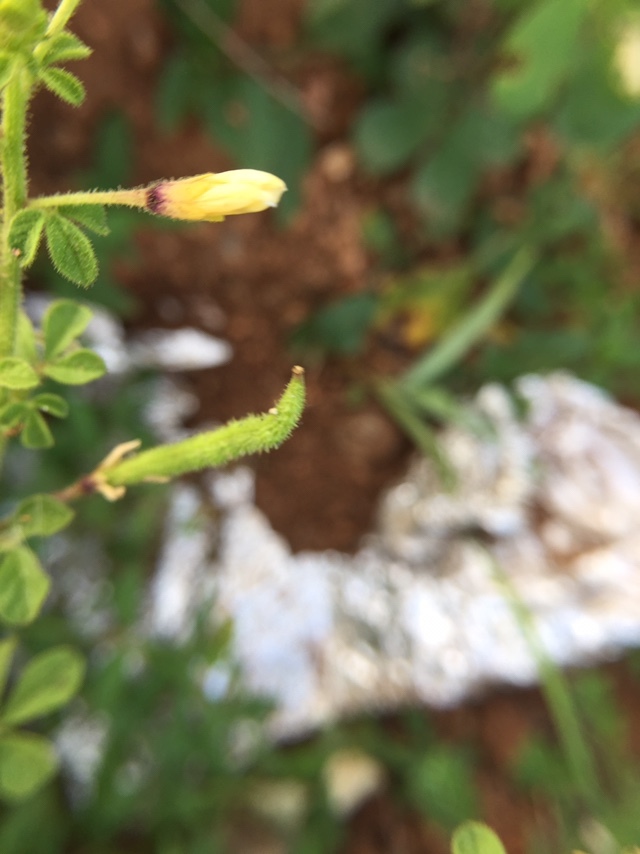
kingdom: Plantae
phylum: Tracheophyta
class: Magnoliopsida
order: Brassicales
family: Cleomaceae
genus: Arivela
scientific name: Arivela viscosa
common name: Asian spiderflower
